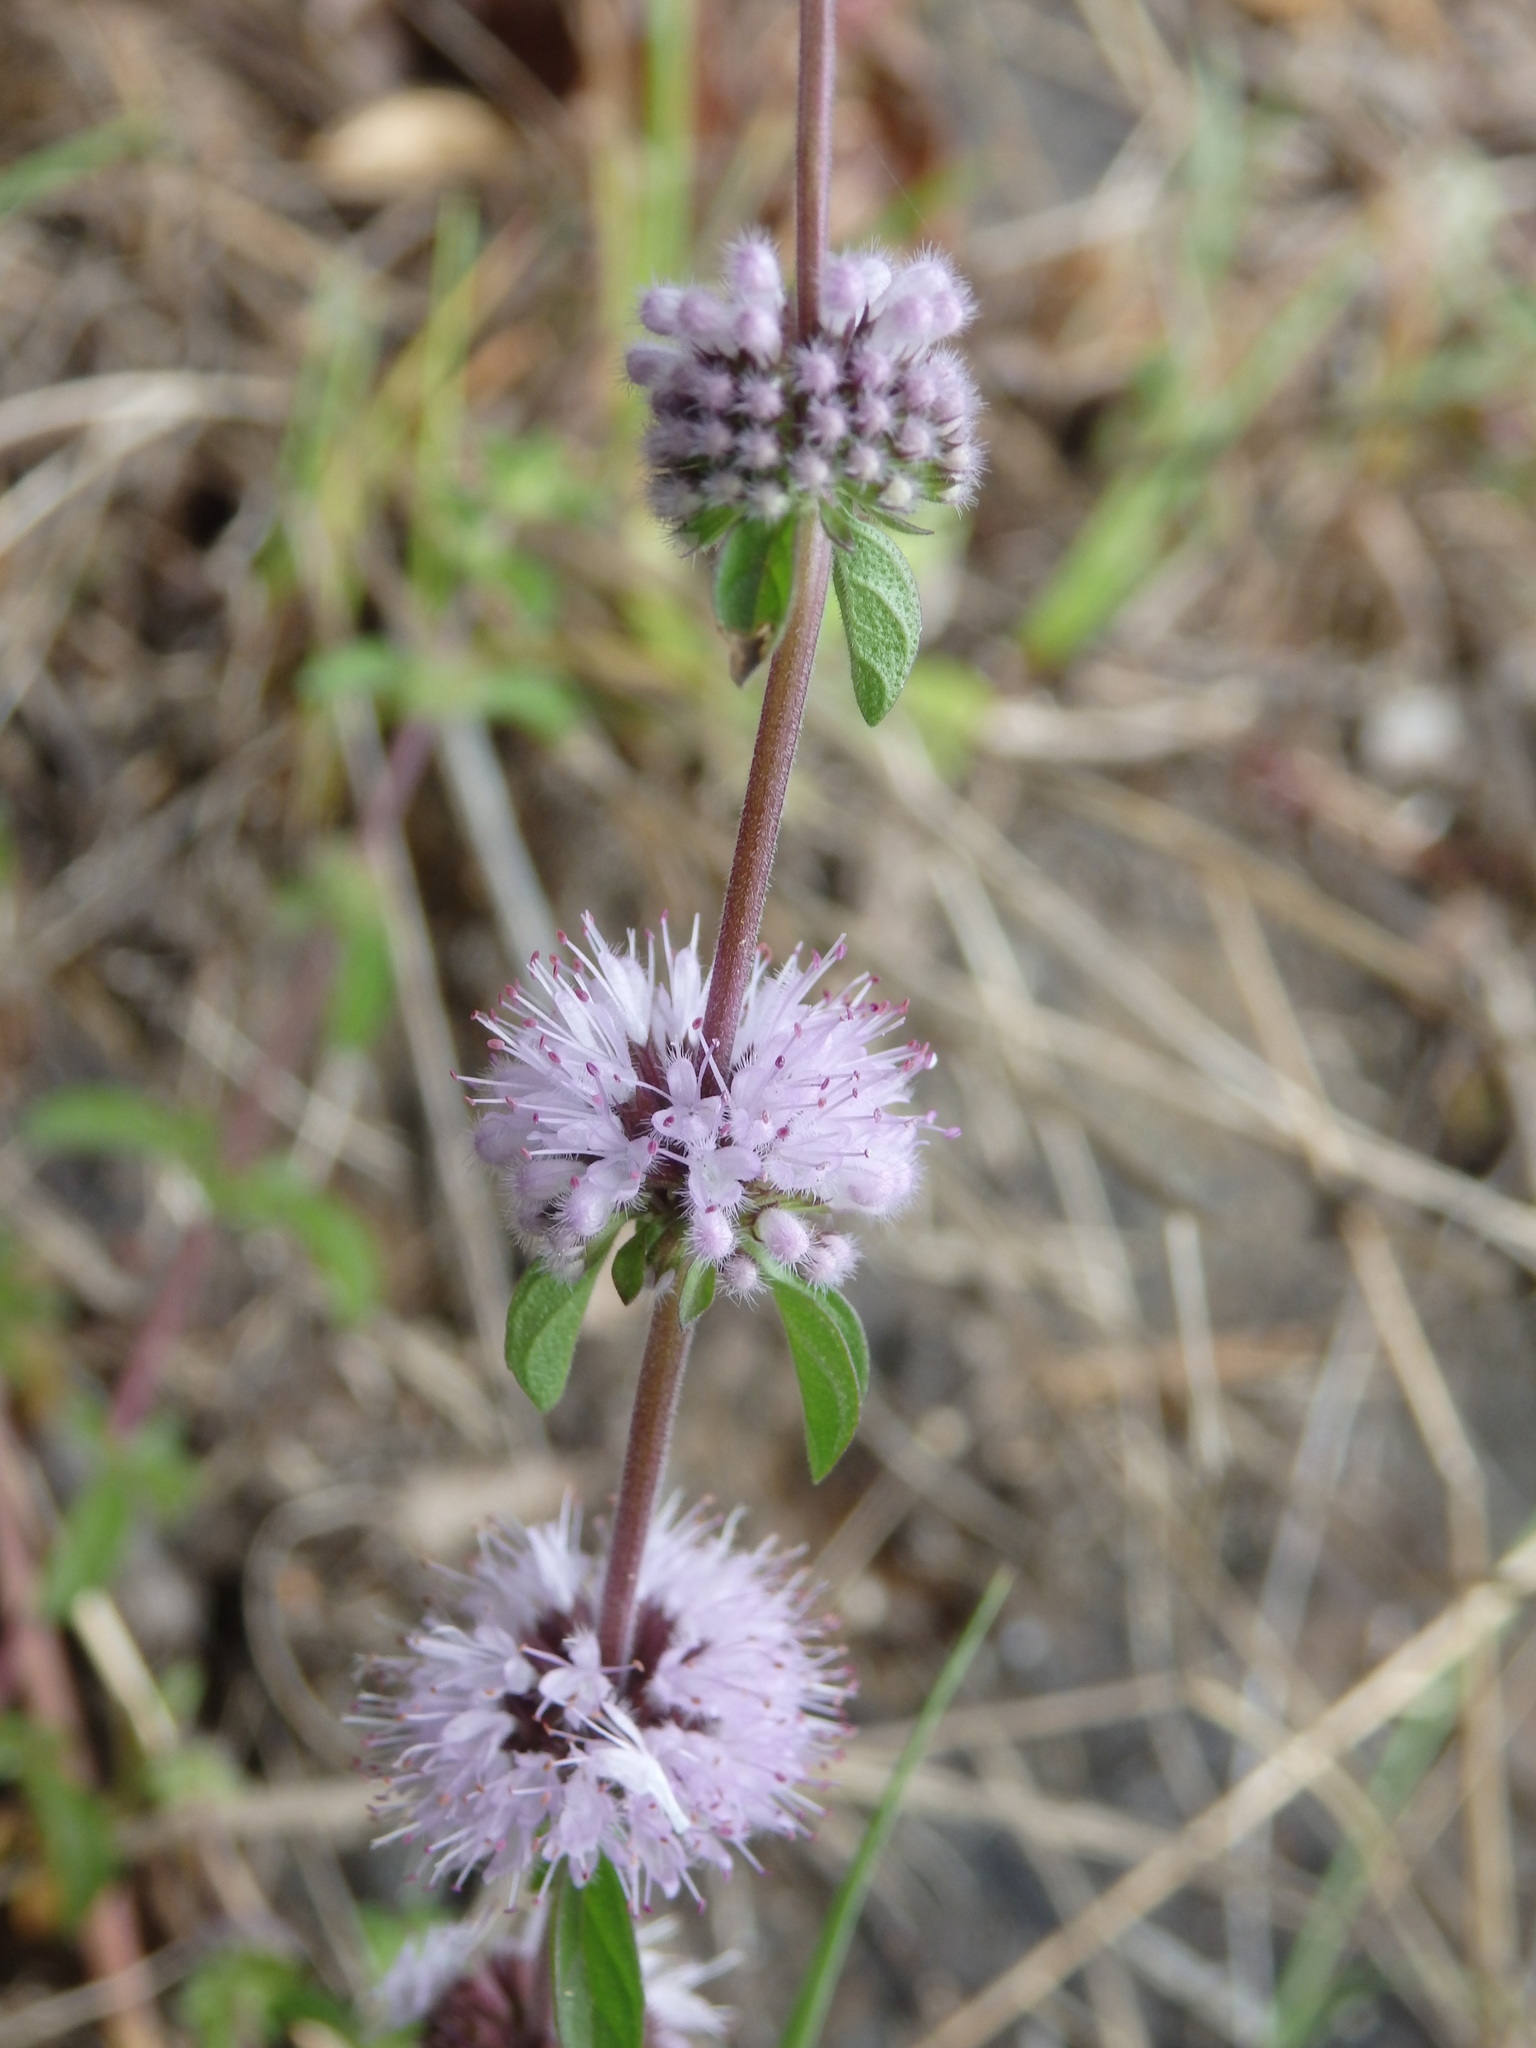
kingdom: Plantae
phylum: Tracheophyta
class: Magnoliopsida
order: Lamiales
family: Lamiaceae
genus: Mentha
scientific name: Mentha pulegium
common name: Pennyroyal
